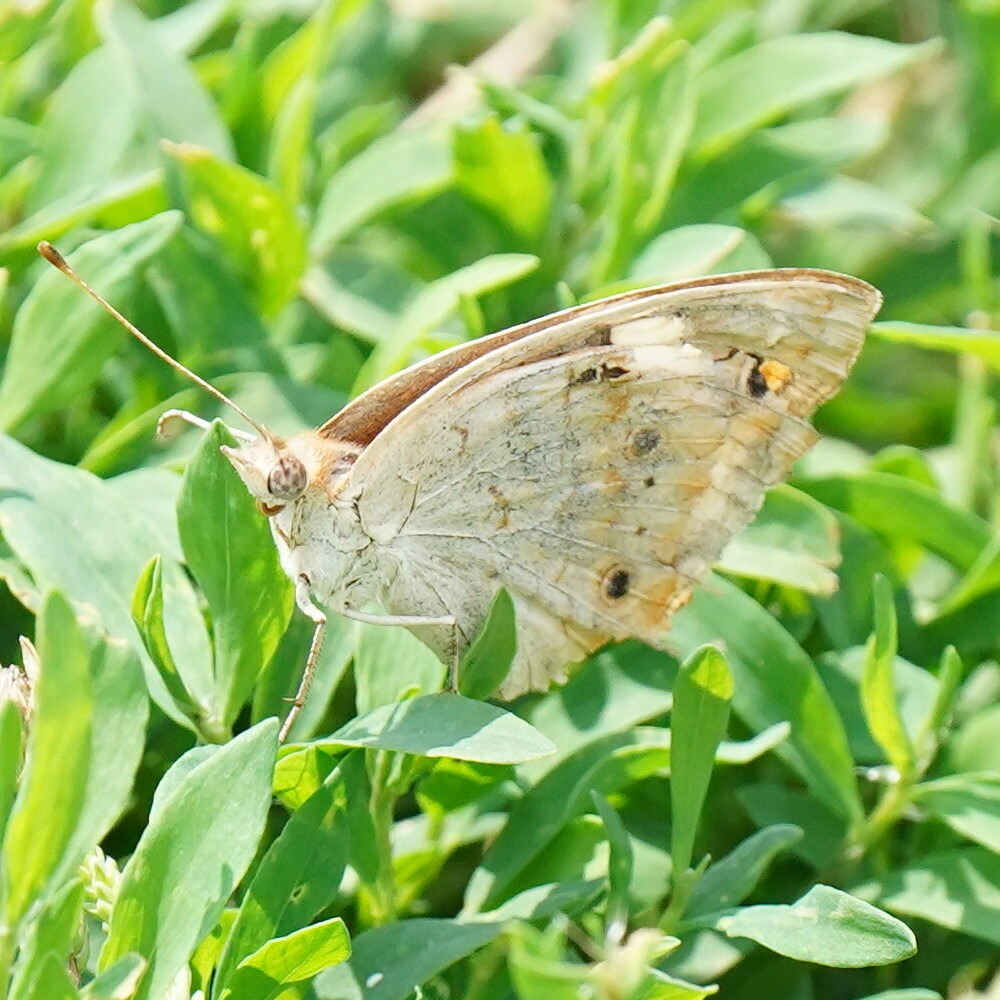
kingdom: Animalia
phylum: Arthropoda
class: Insecta
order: Lepidoptera
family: Nymphalidae
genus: Junonia
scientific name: Junonia coenia
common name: Common buckeye
